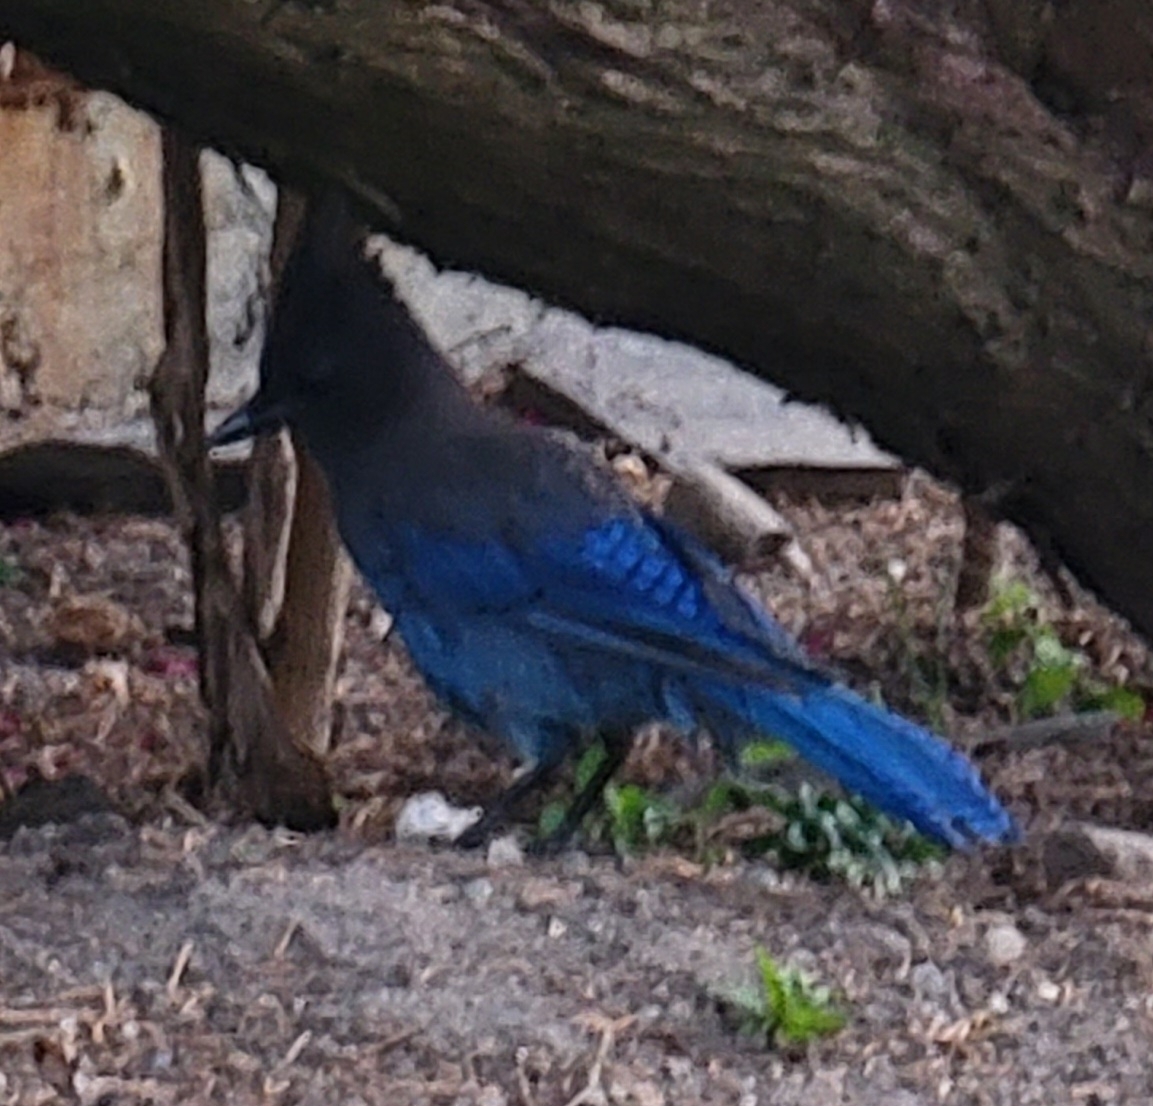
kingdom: Animalia
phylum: Chordata
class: Aves
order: Passeriformes
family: Corvidae
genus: Cyanocitta
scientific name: Cyanocitta stelleri
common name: Steller's jay
